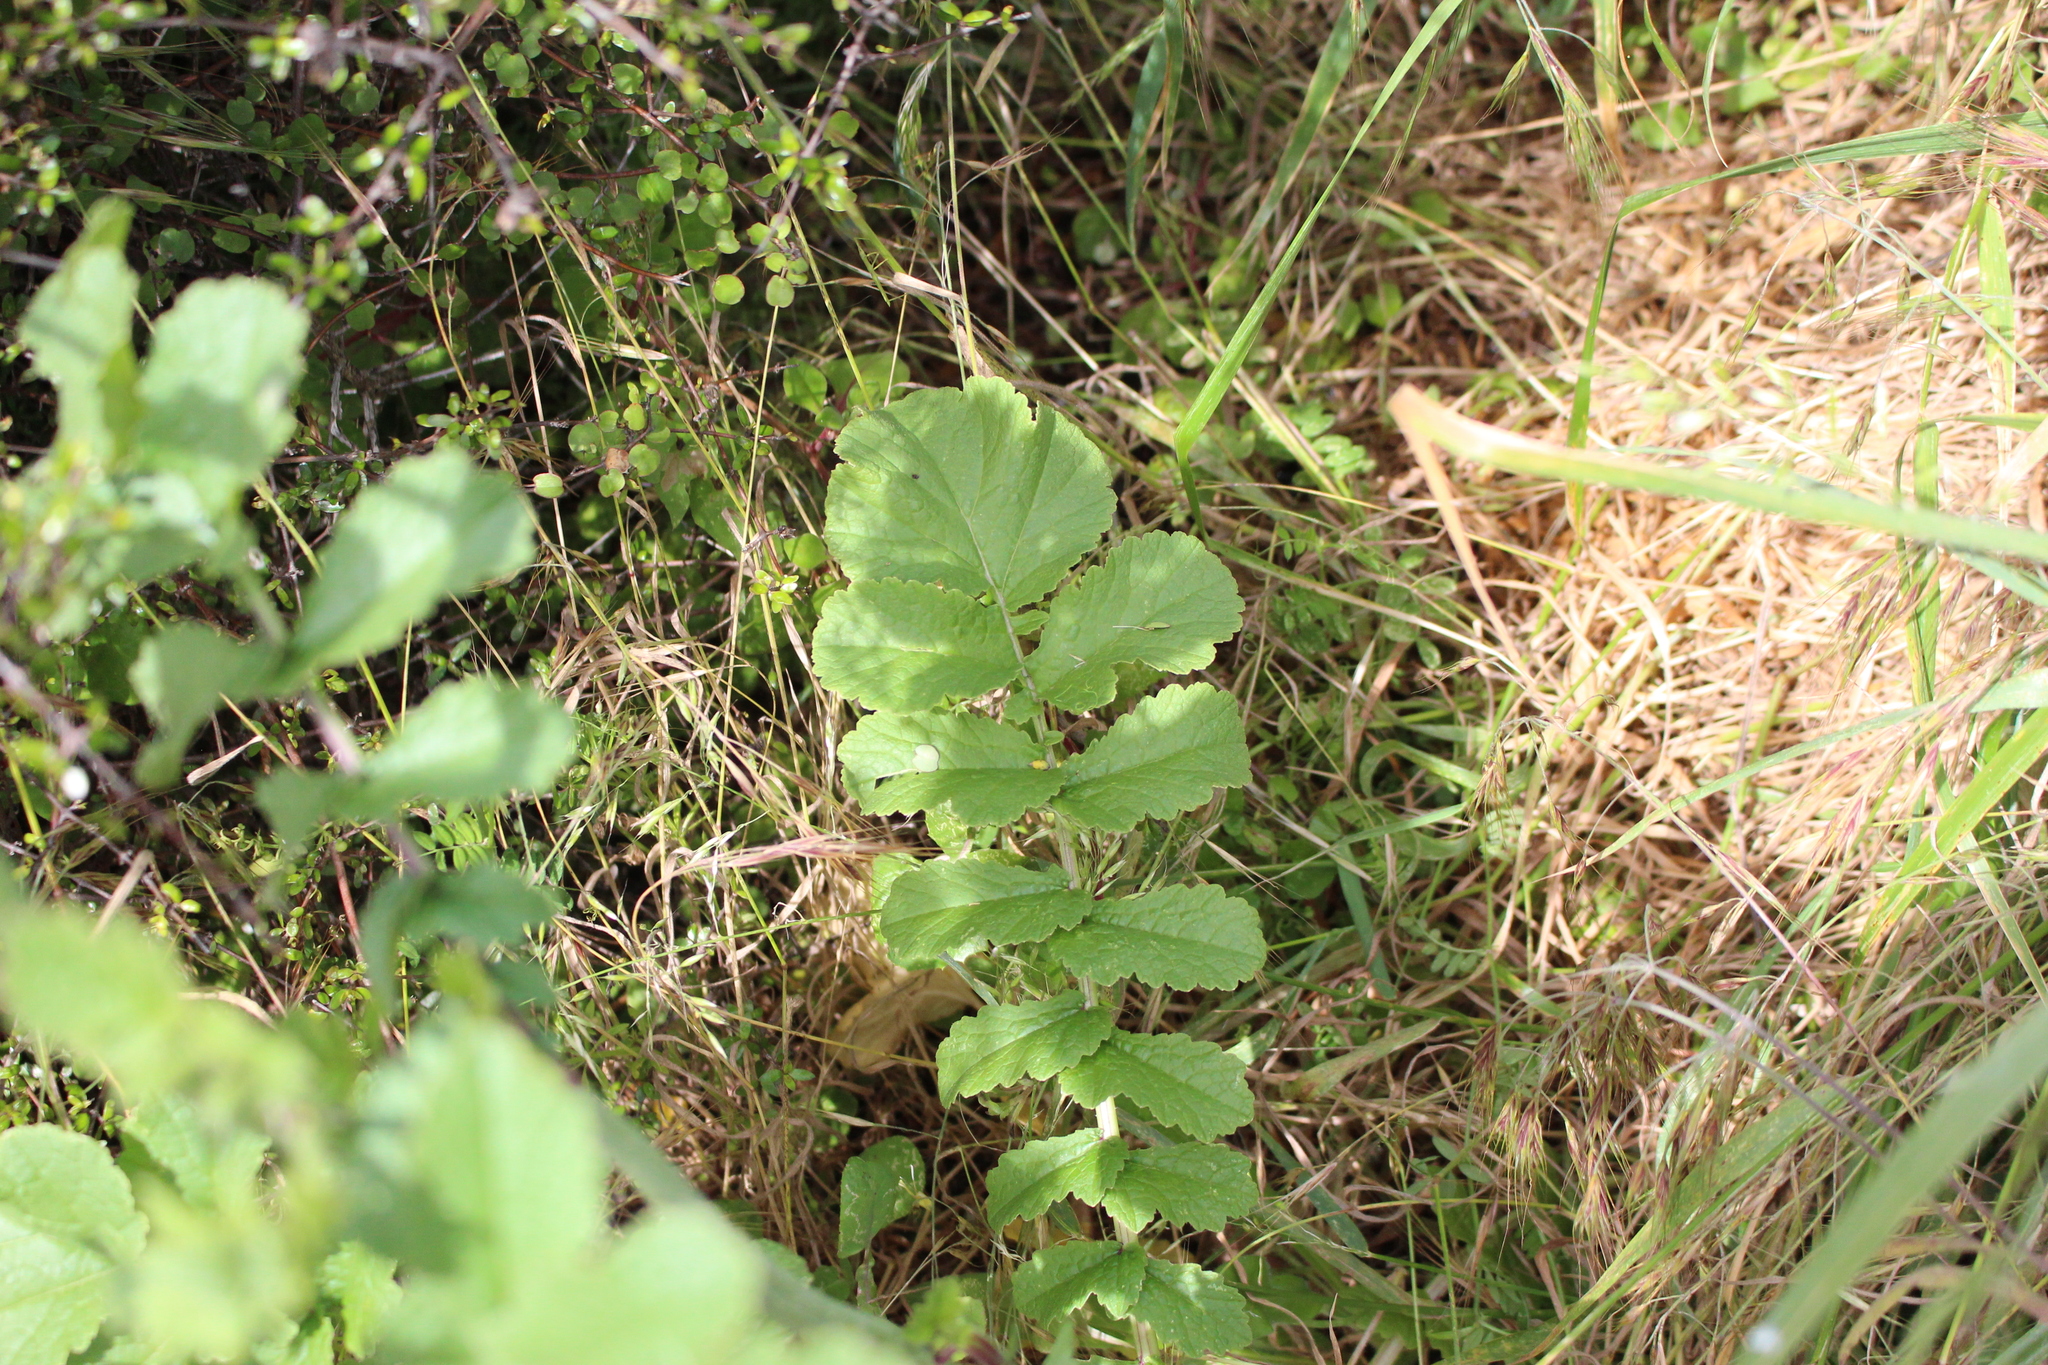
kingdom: Plantae
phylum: Tracheophyta
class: Magnoliopsida
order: Brassicales
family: Brassicaceae
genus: Raphanus
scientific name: Raphanus raphanistrum
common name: Wild radish
